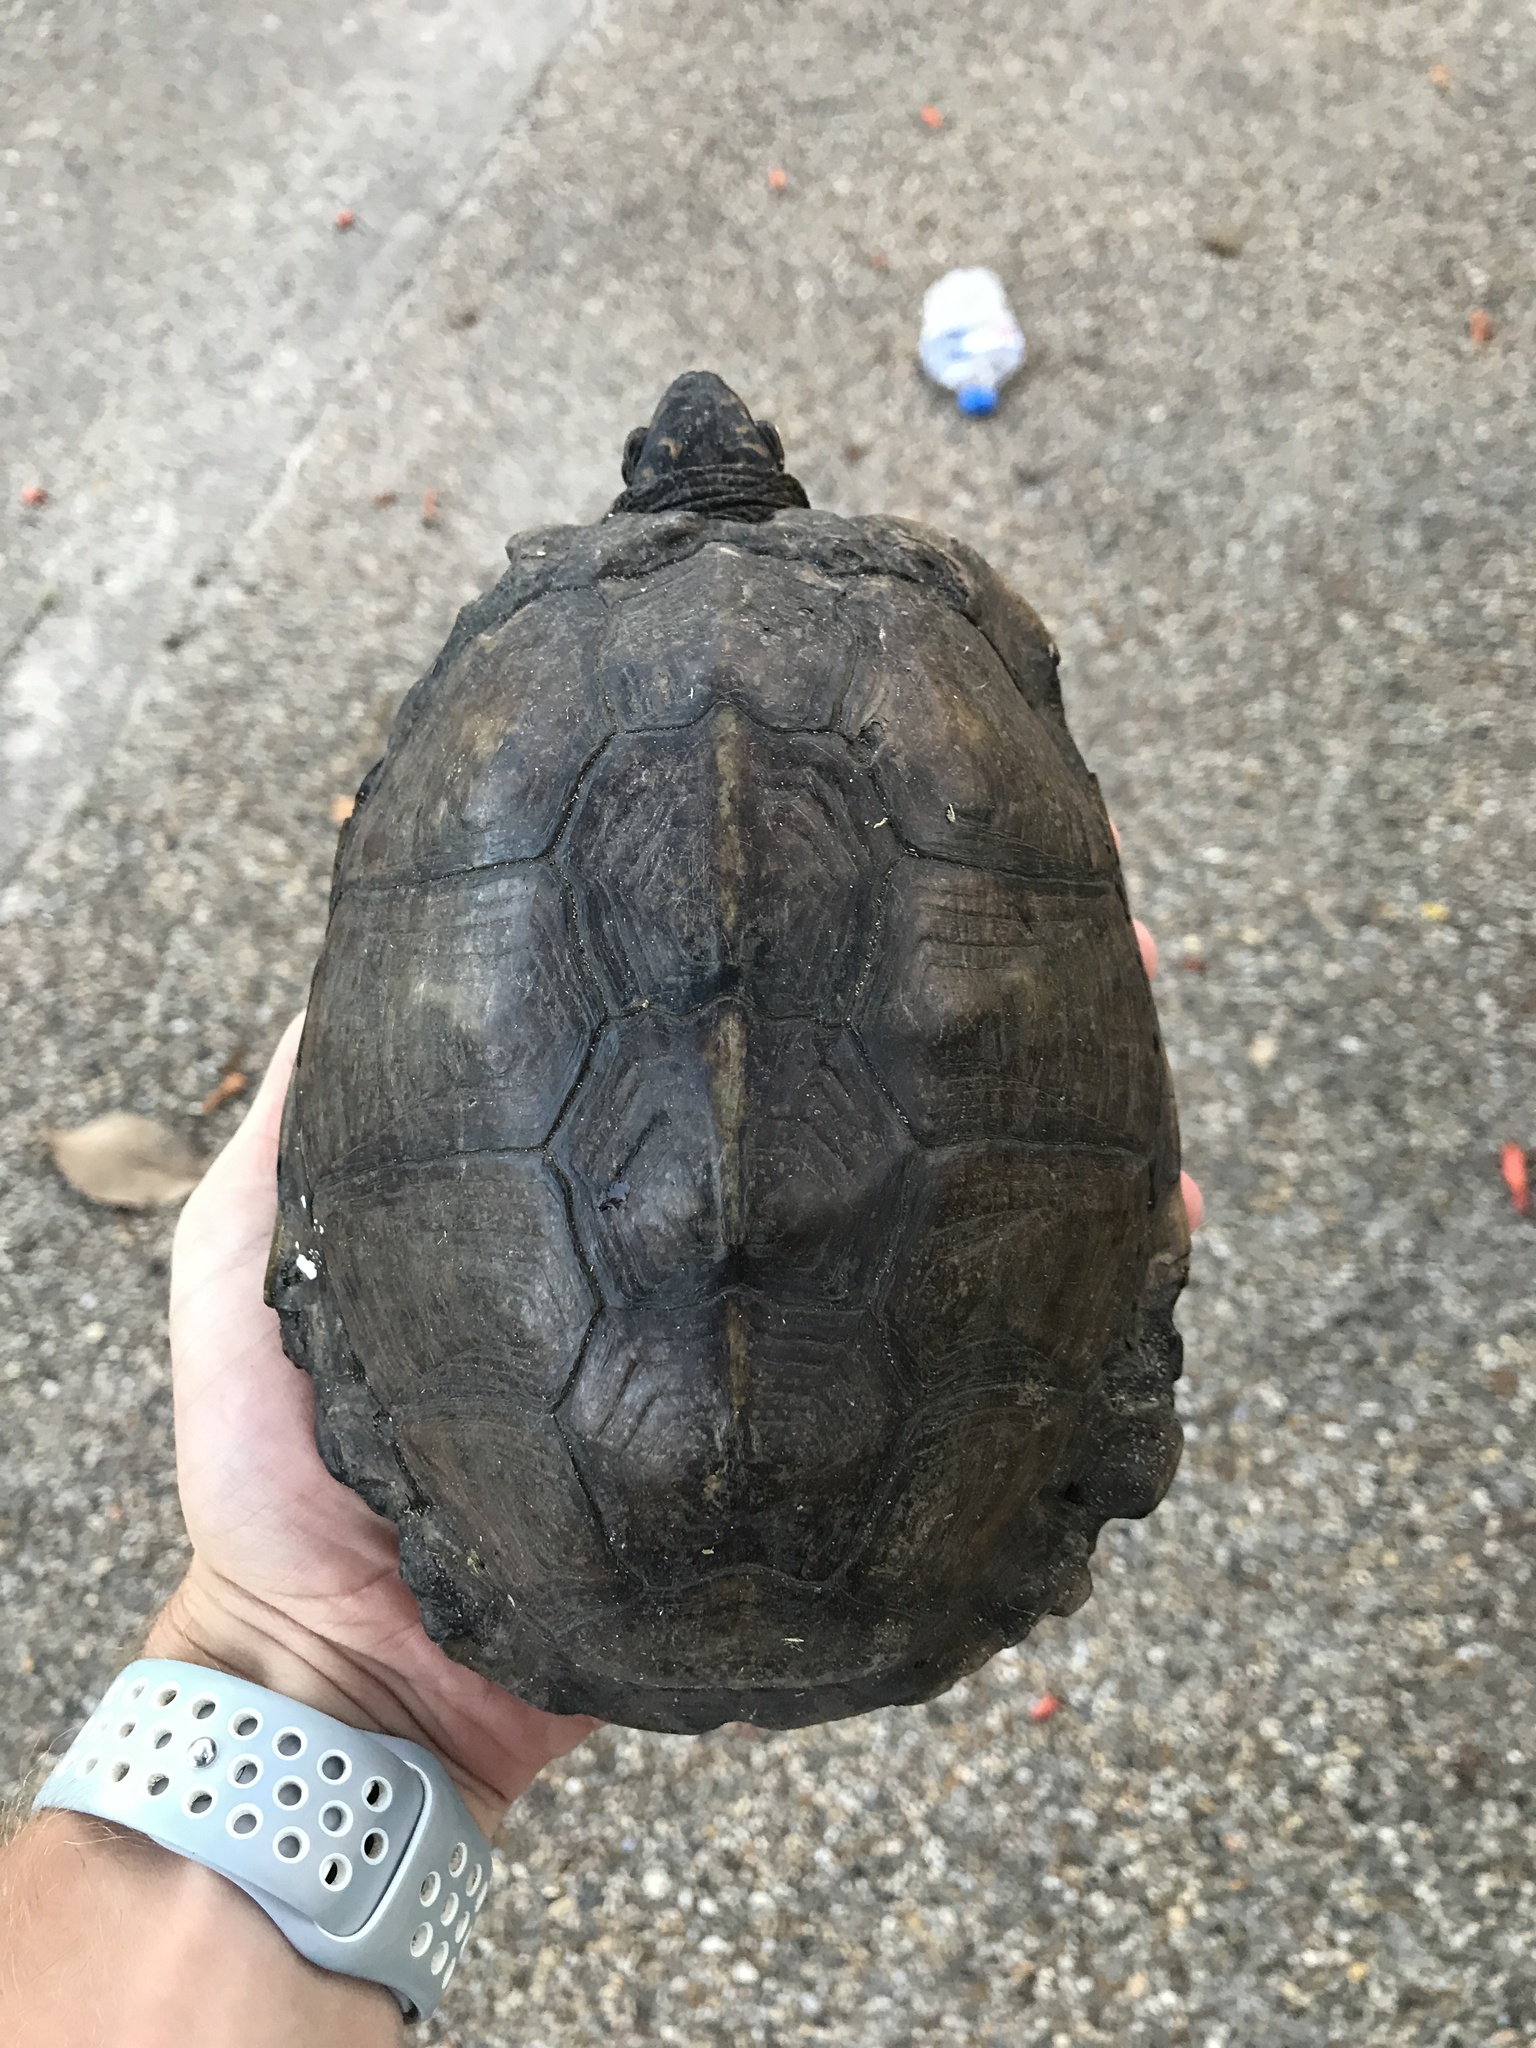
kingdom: Animalia
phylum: Chordata
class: Testudines
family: Emydidae
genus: Terrapene
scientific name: Terrapene carolina
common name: Common box turtle
